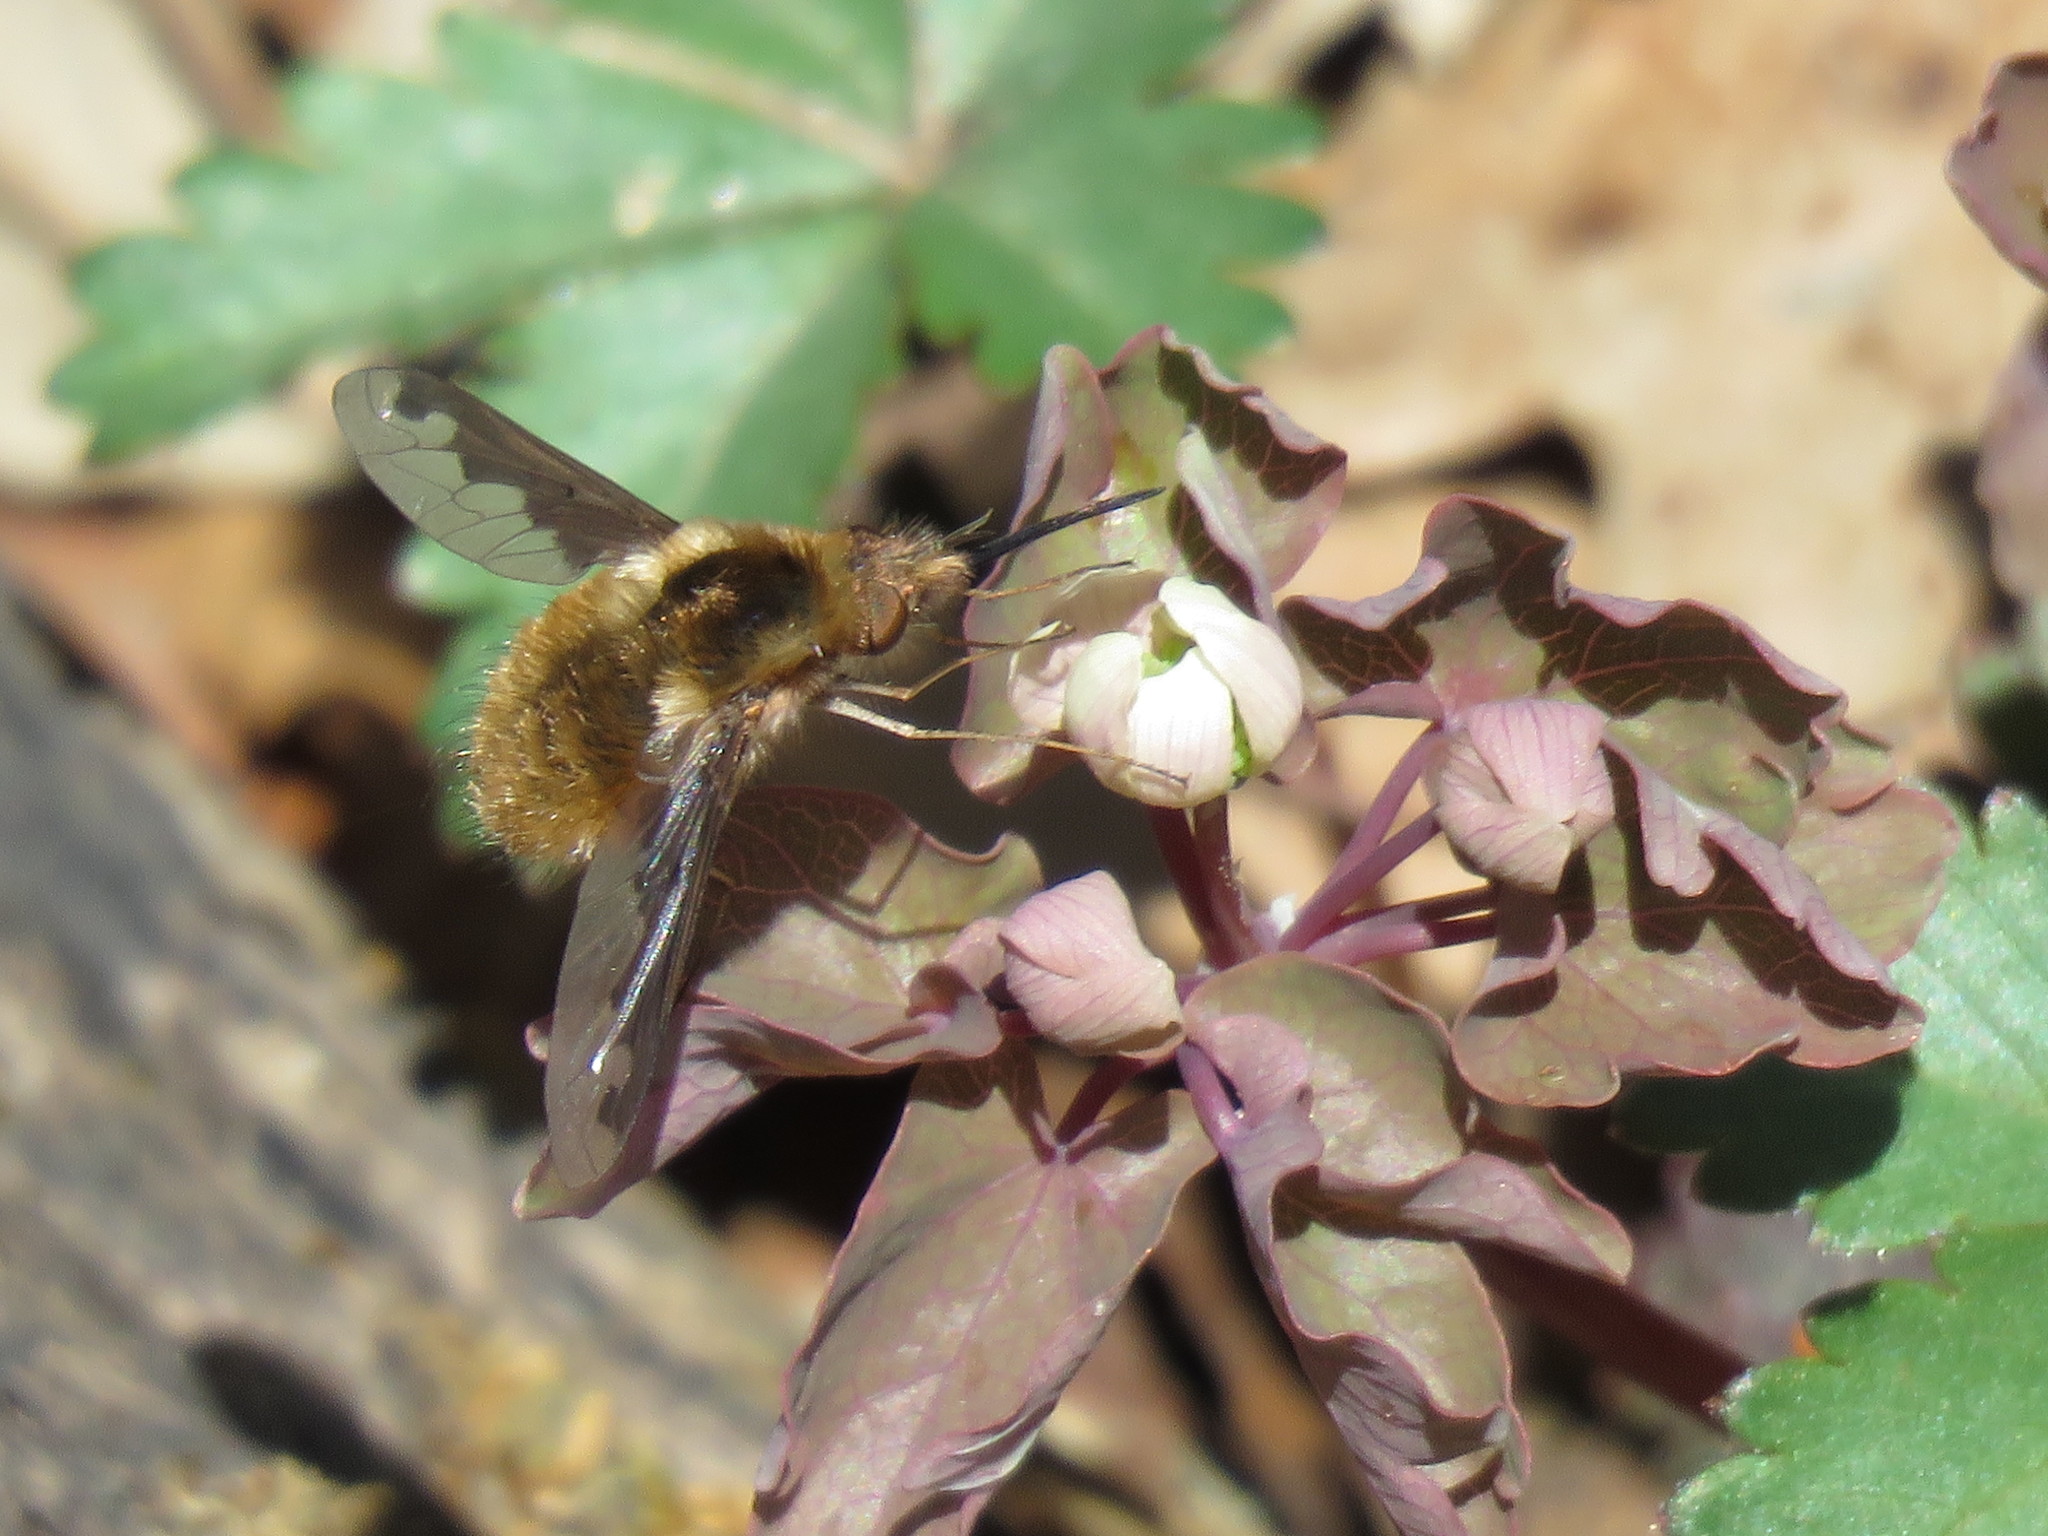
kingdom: Animalia
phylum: Arthropoda
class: Insecta
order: Diptera
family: Bombyliidae
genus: Bombylius
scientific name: Bombylius major
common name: Bee fly
